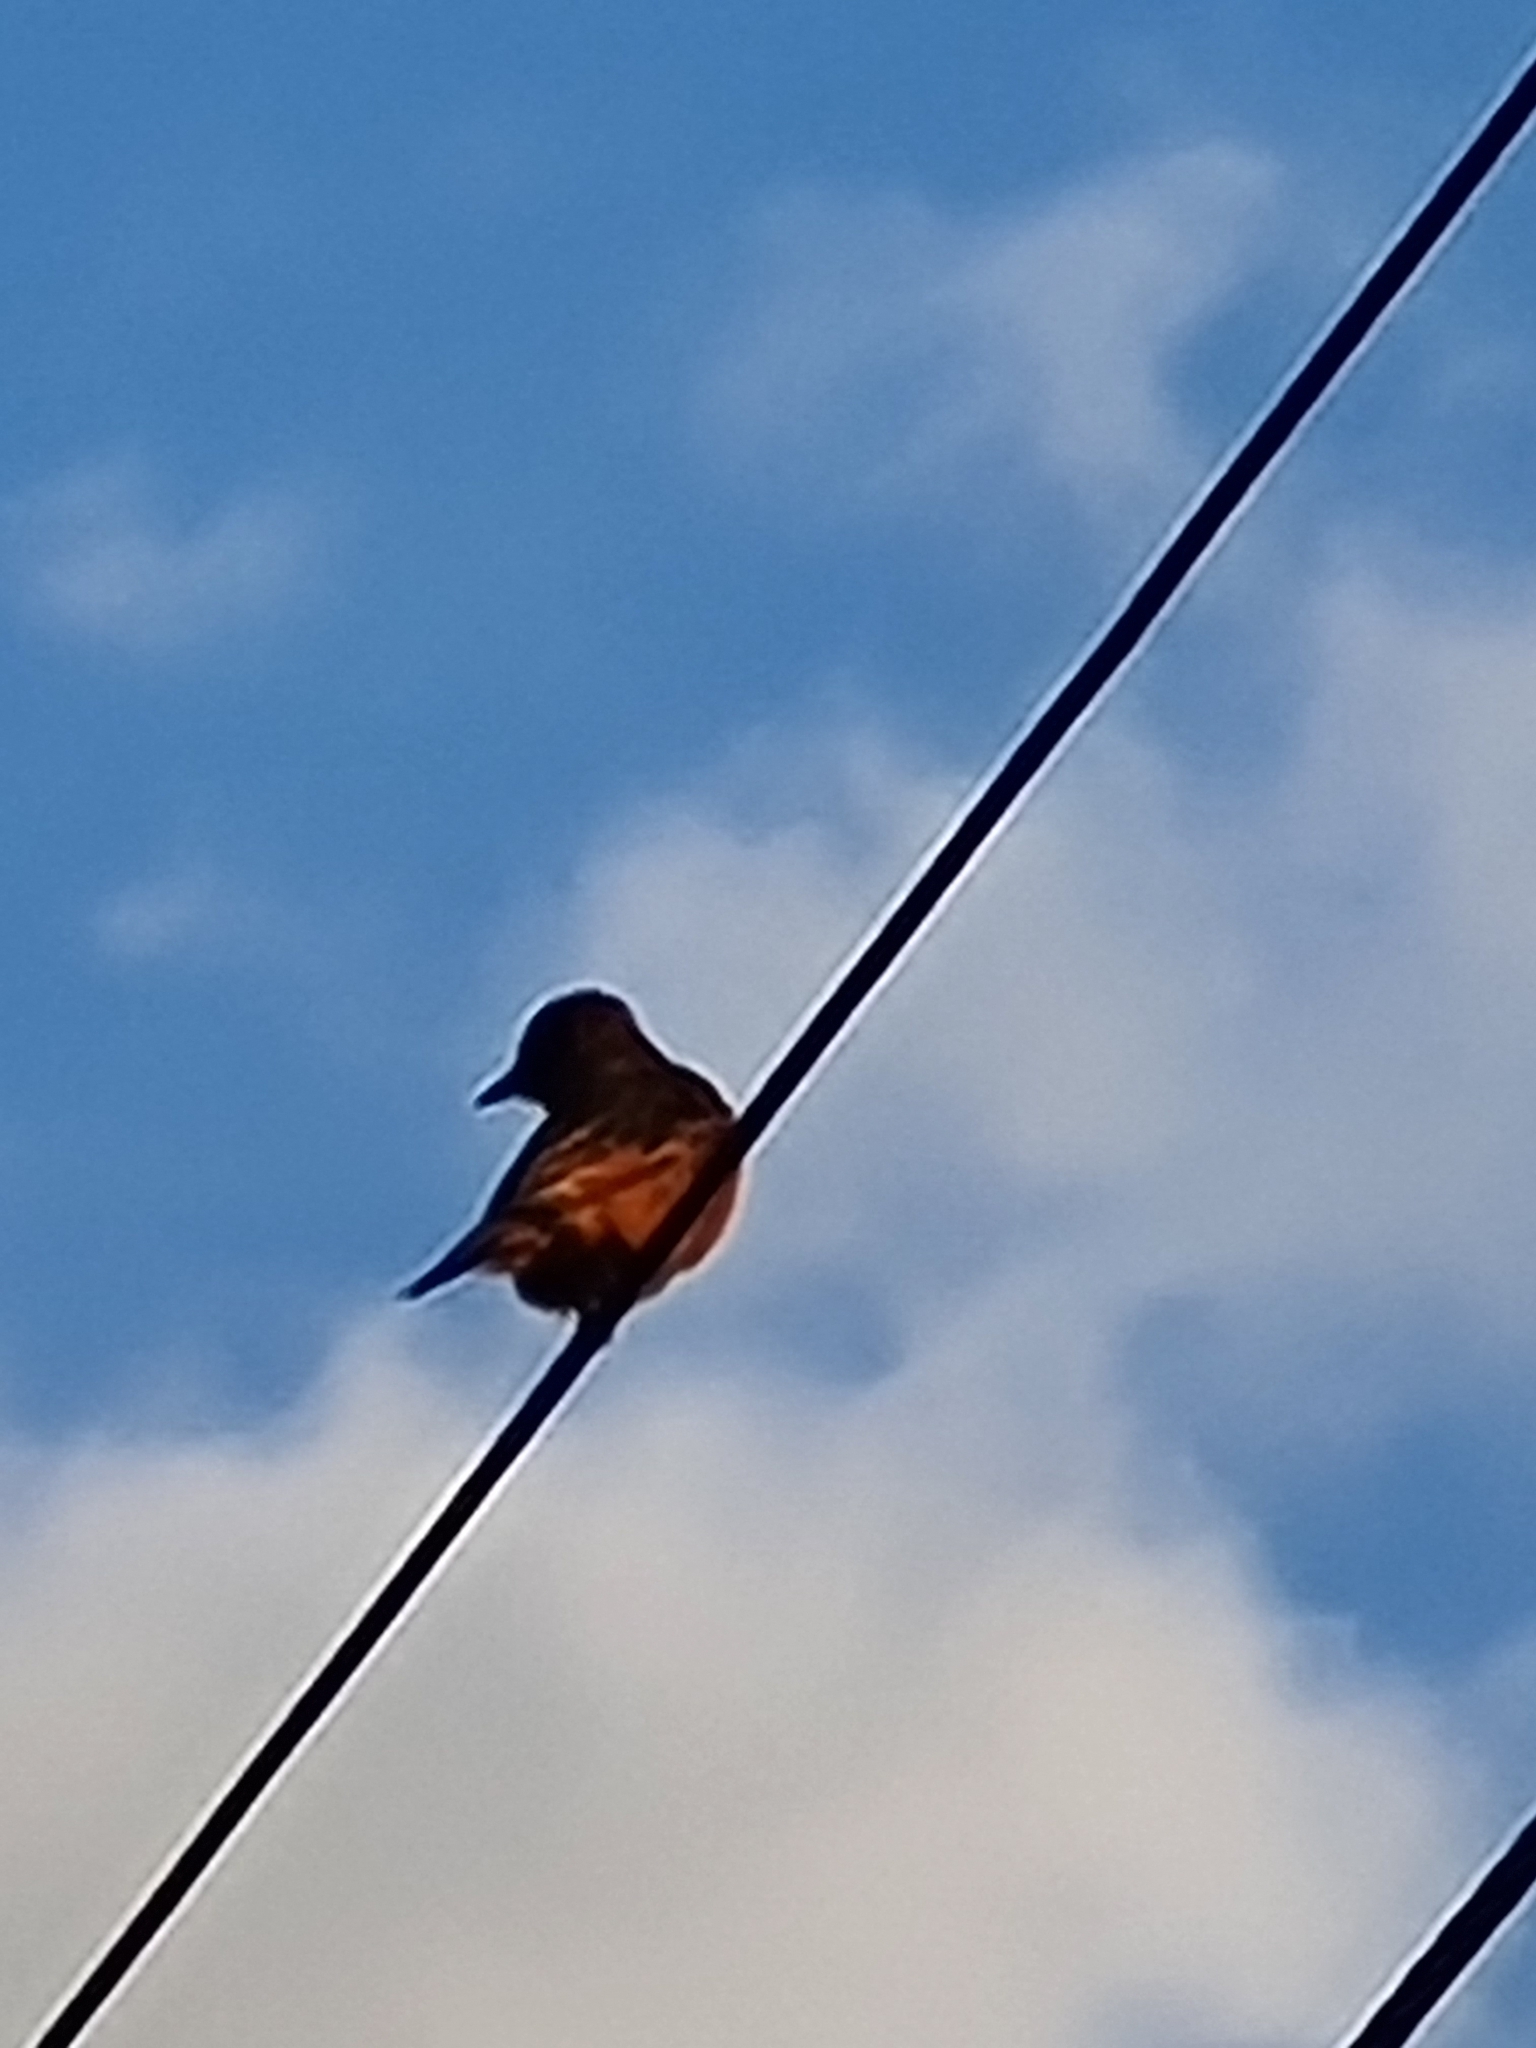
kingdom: Animalia
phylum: Chordata
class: Aves
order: Passeriformes
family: Tyrannidae
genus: Hirundinea
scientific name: Hirundinea ferruginea
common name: Cliff flycatcher
